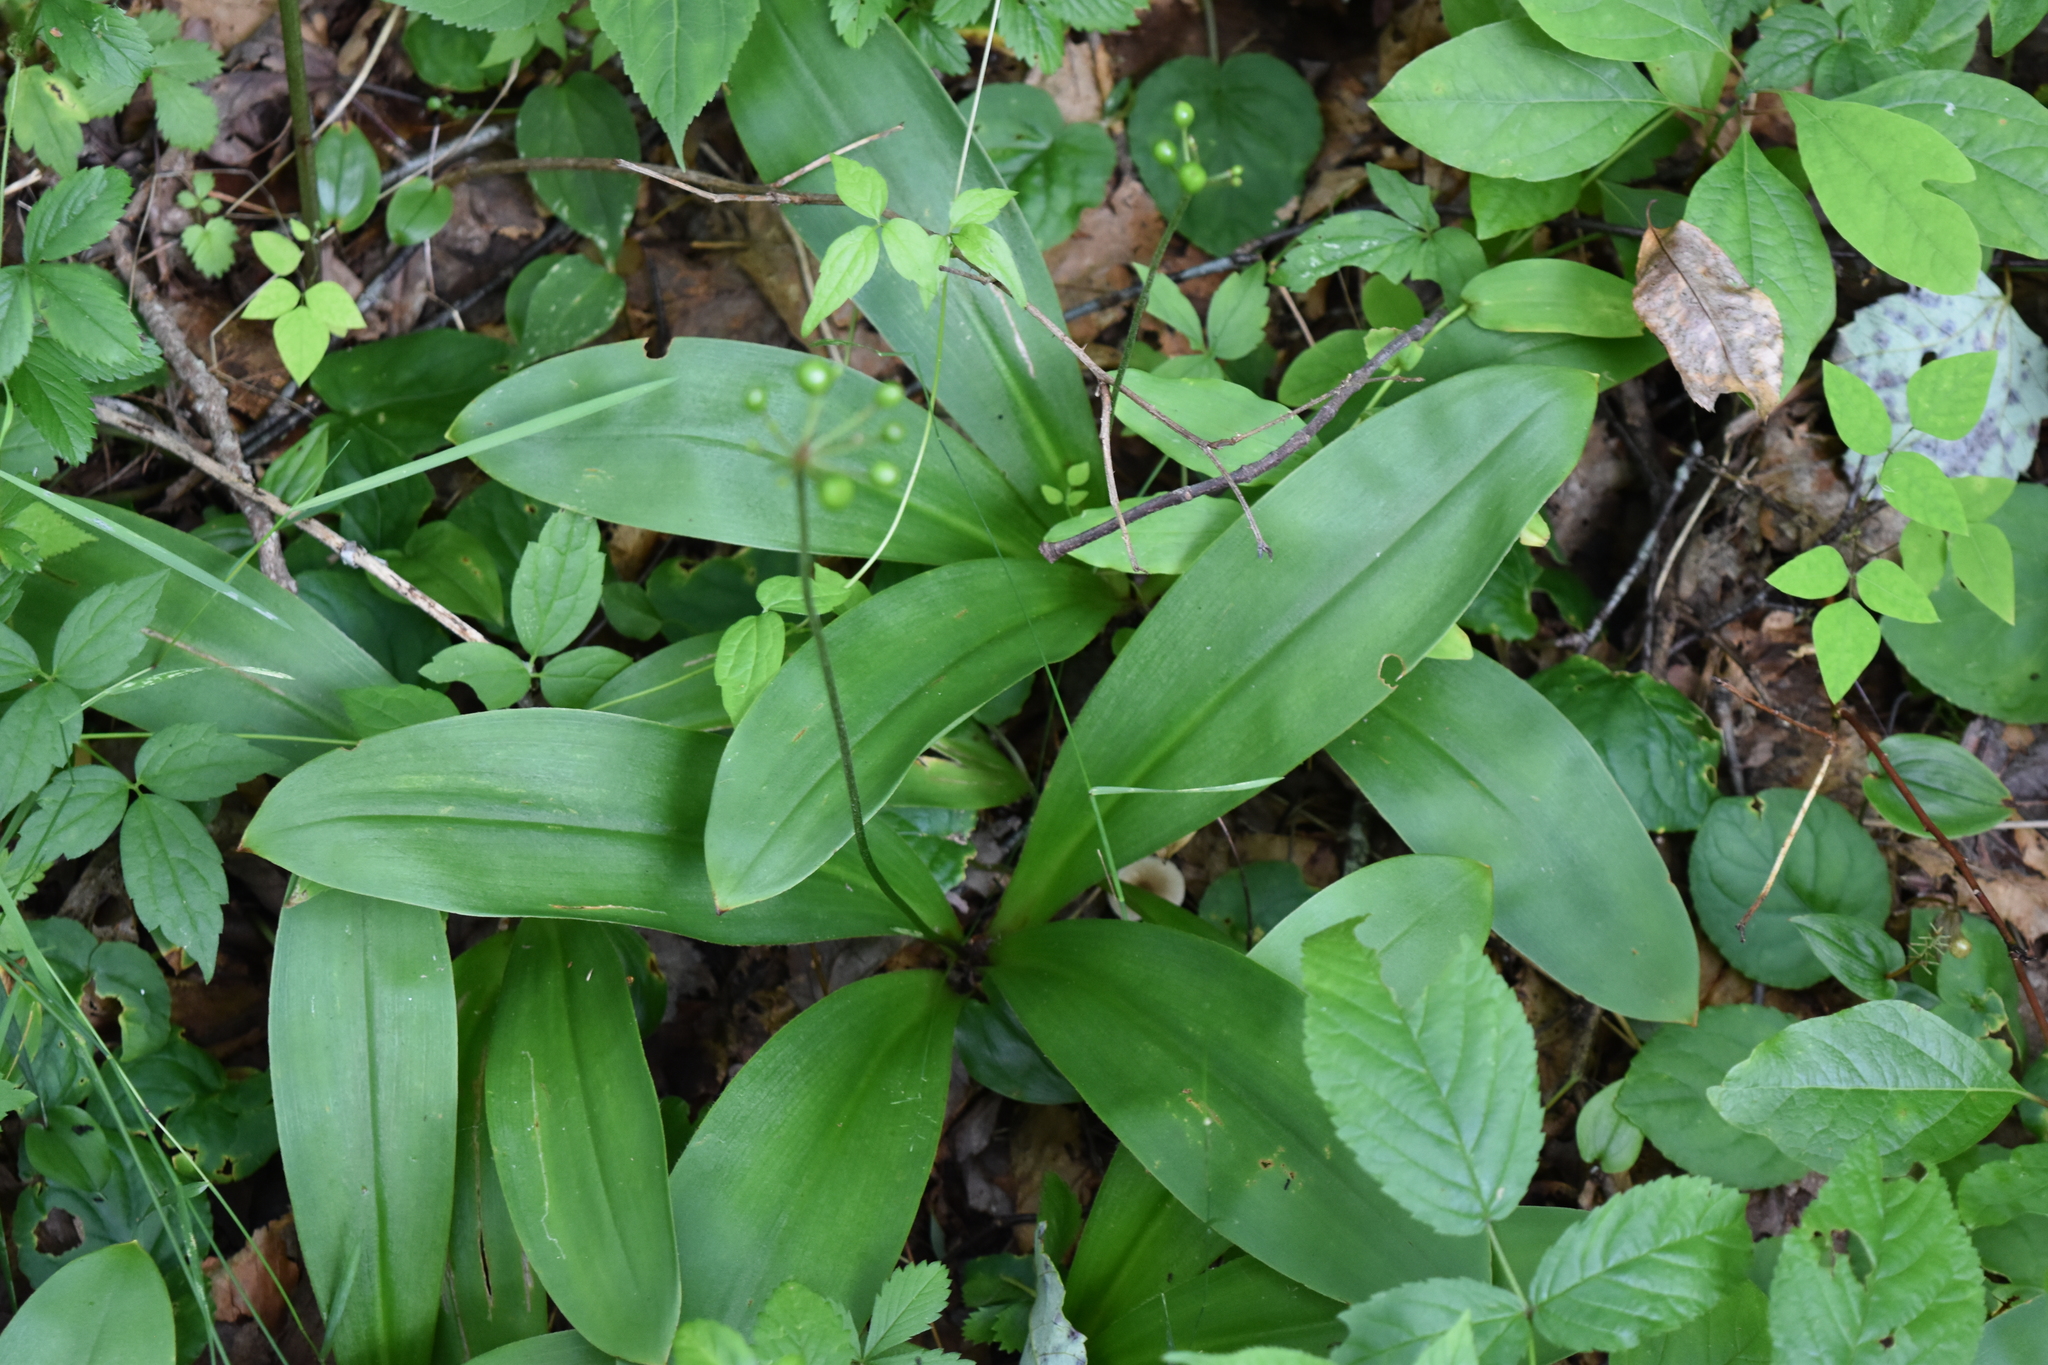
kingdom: Plantae
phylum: Tracheophyta
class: Liliopsida
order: Liliales
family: Liliaceae
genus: Clintonia
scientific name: Clintonia umbellulata
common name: Speckle wood-lily
